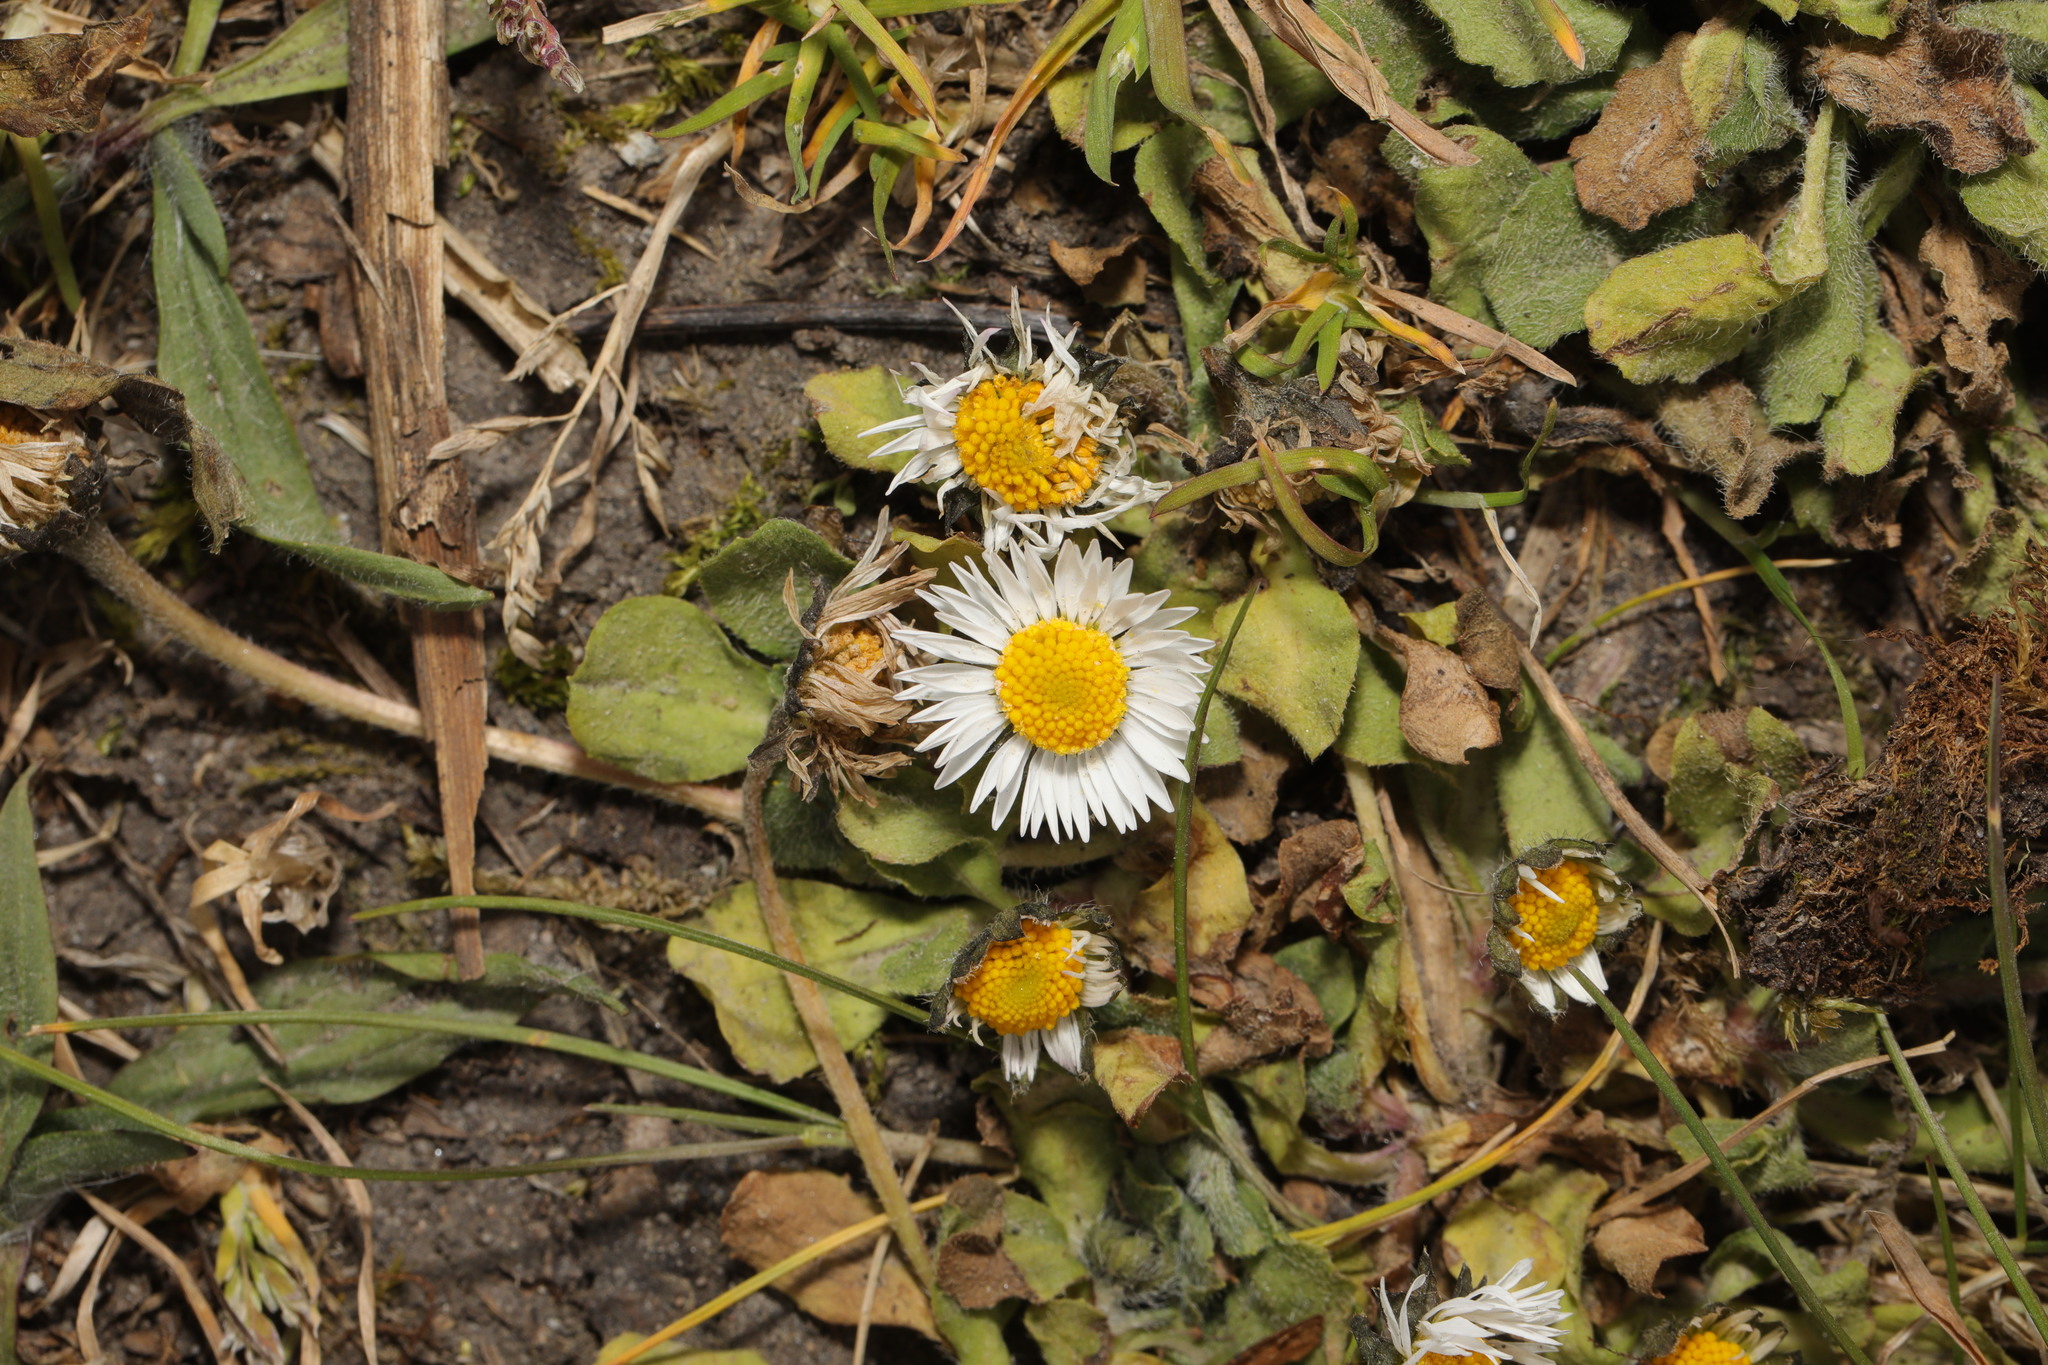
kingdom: Plantae
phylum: Tracheophyta
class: Magnoliopsida
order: Asterales
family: Asteraceae
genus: Bellis
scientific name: Bellis perennis
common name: Lawndaisy
